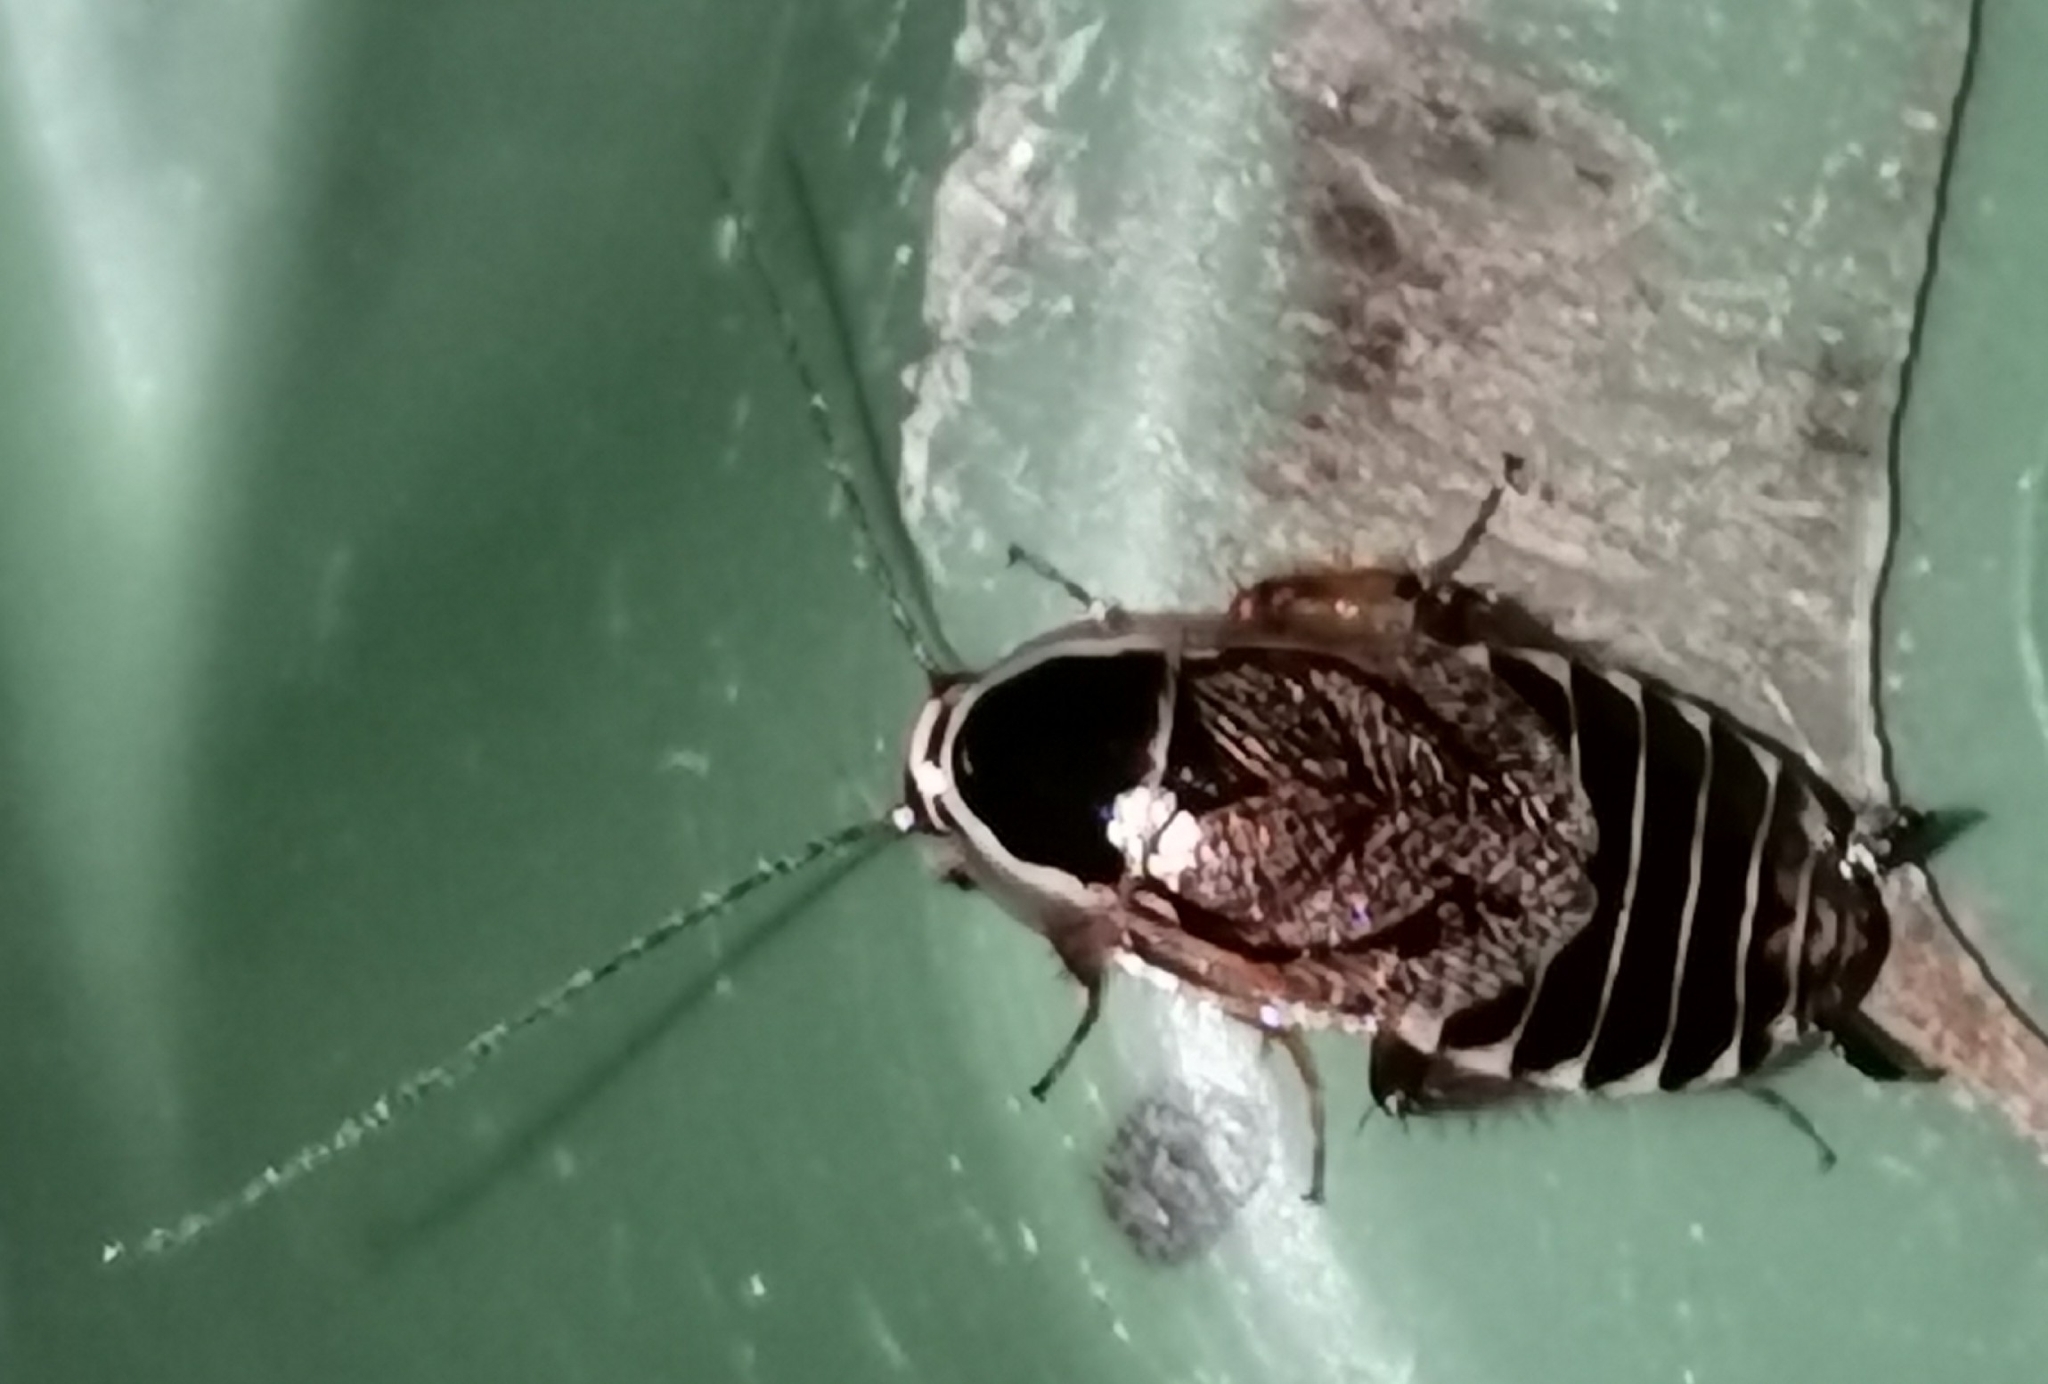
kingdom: Animalia
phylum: Arthropoda
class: Insecta
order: Blattodea
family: Ectobiidae
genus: Ectobius
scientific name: Ectobius sylvestris
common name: Forest cockroach
